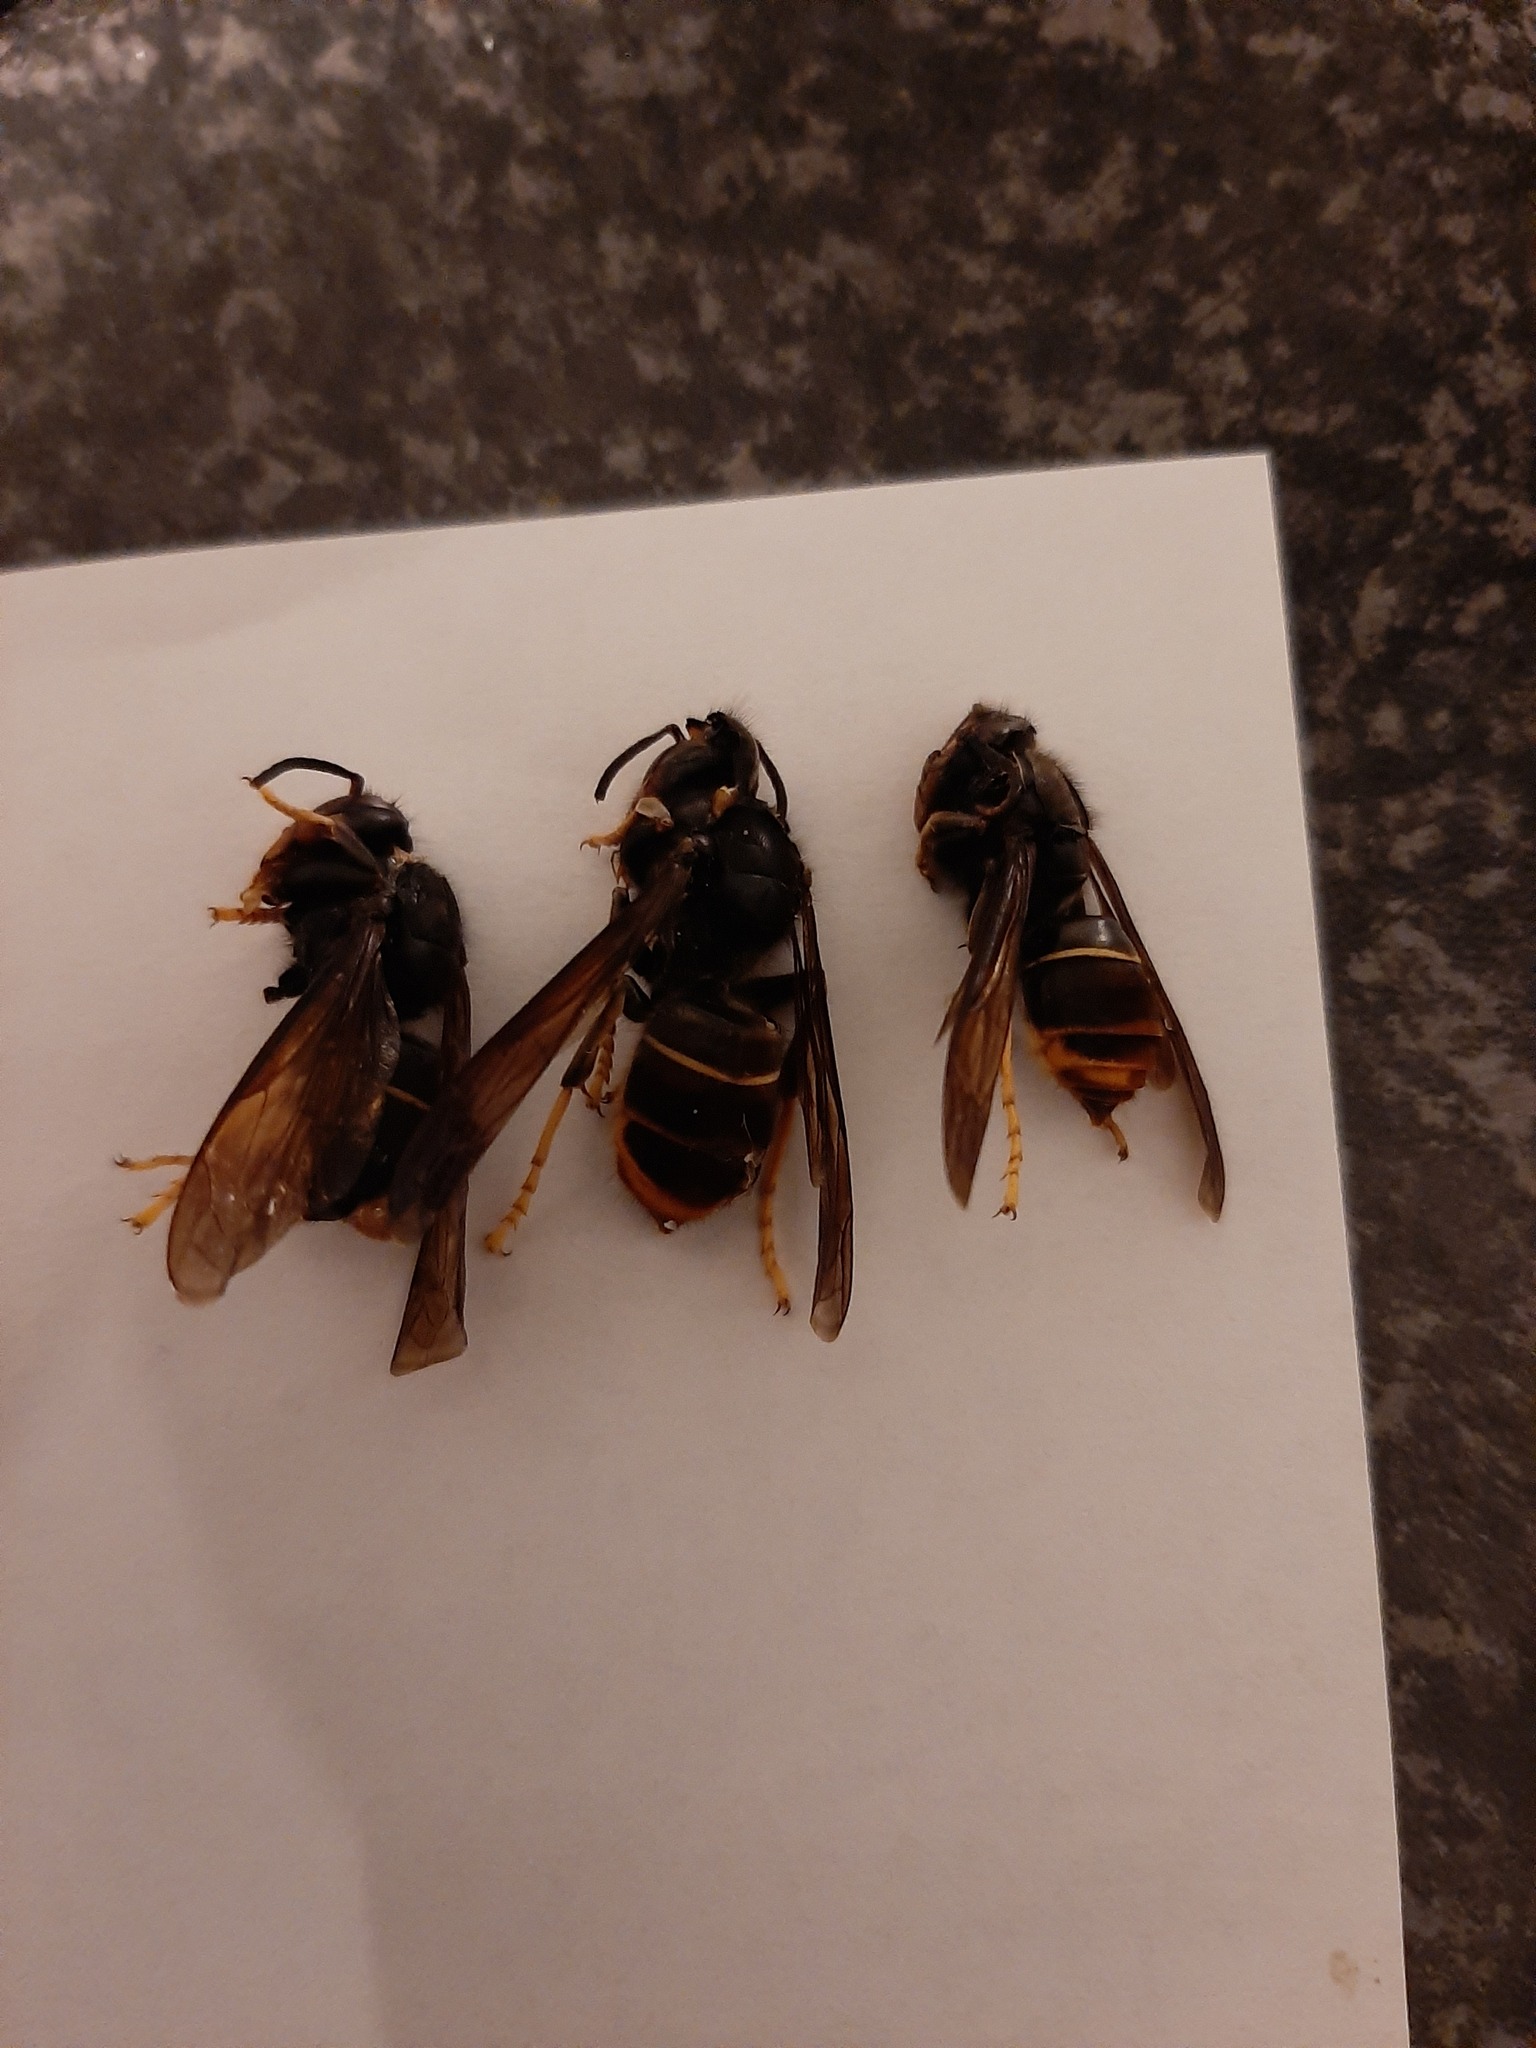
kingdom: Animalia
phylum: Arthropoda
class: Insecta
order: Hymenoptera
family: Vespidae
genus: Vespa
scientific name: Vespa velutina
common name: Asian hornet
